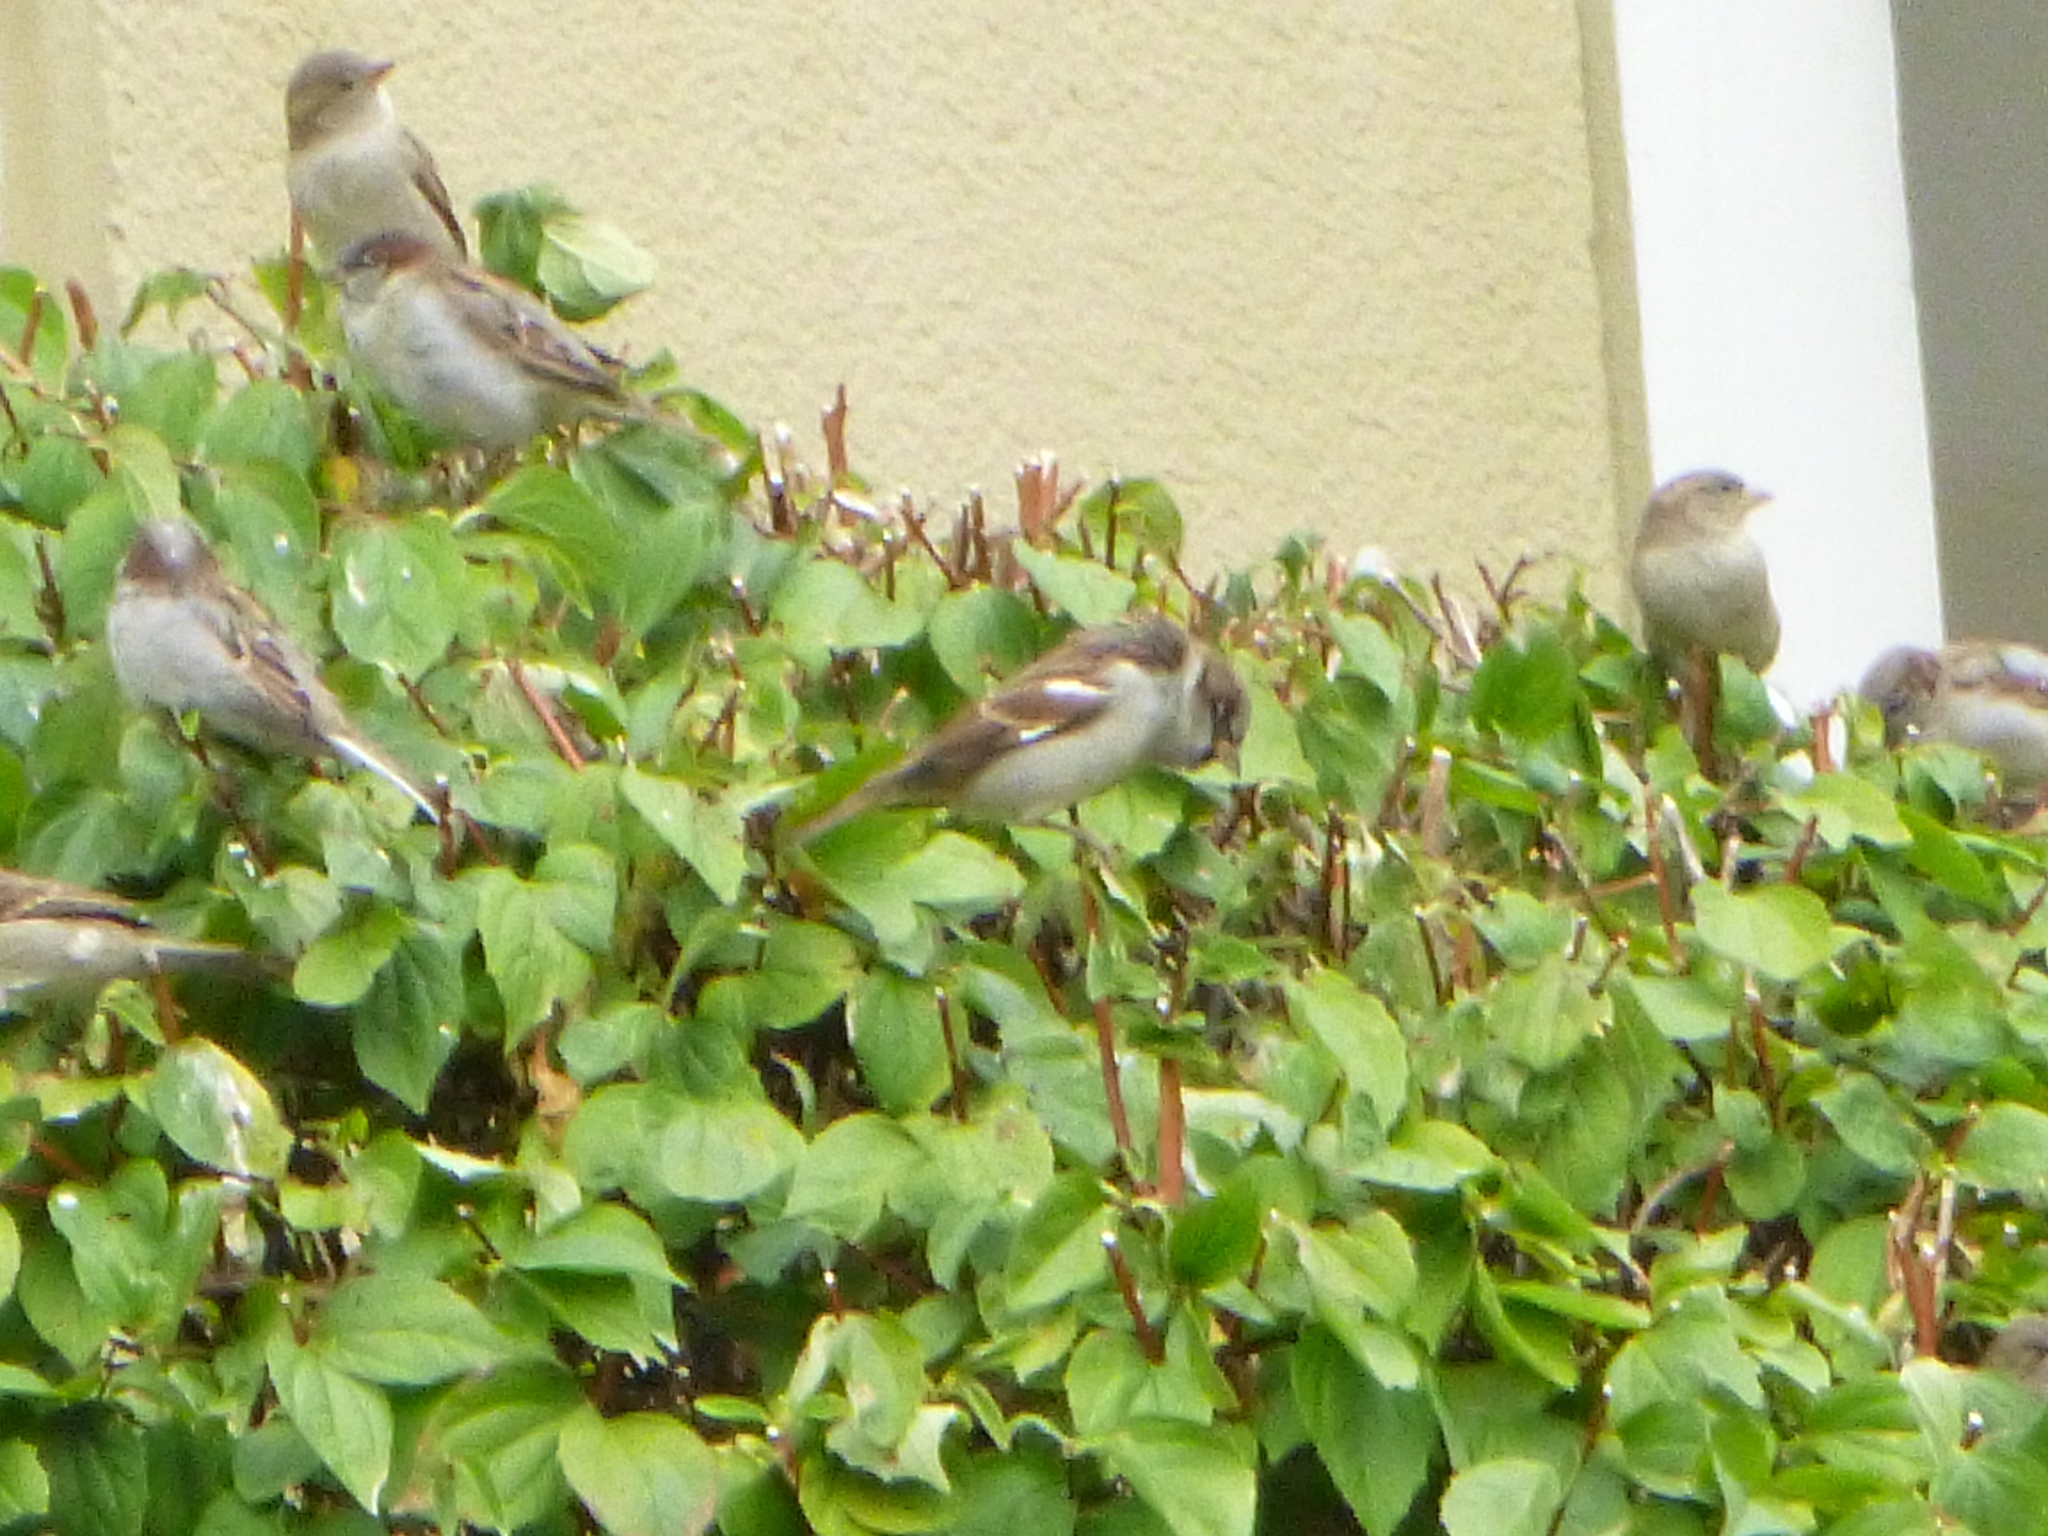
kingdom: Animalia
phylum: Chordata
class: Aves
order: Passeriformes
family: Passeridae
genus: Passer
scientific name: Passer domesticus
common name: House sparrow
